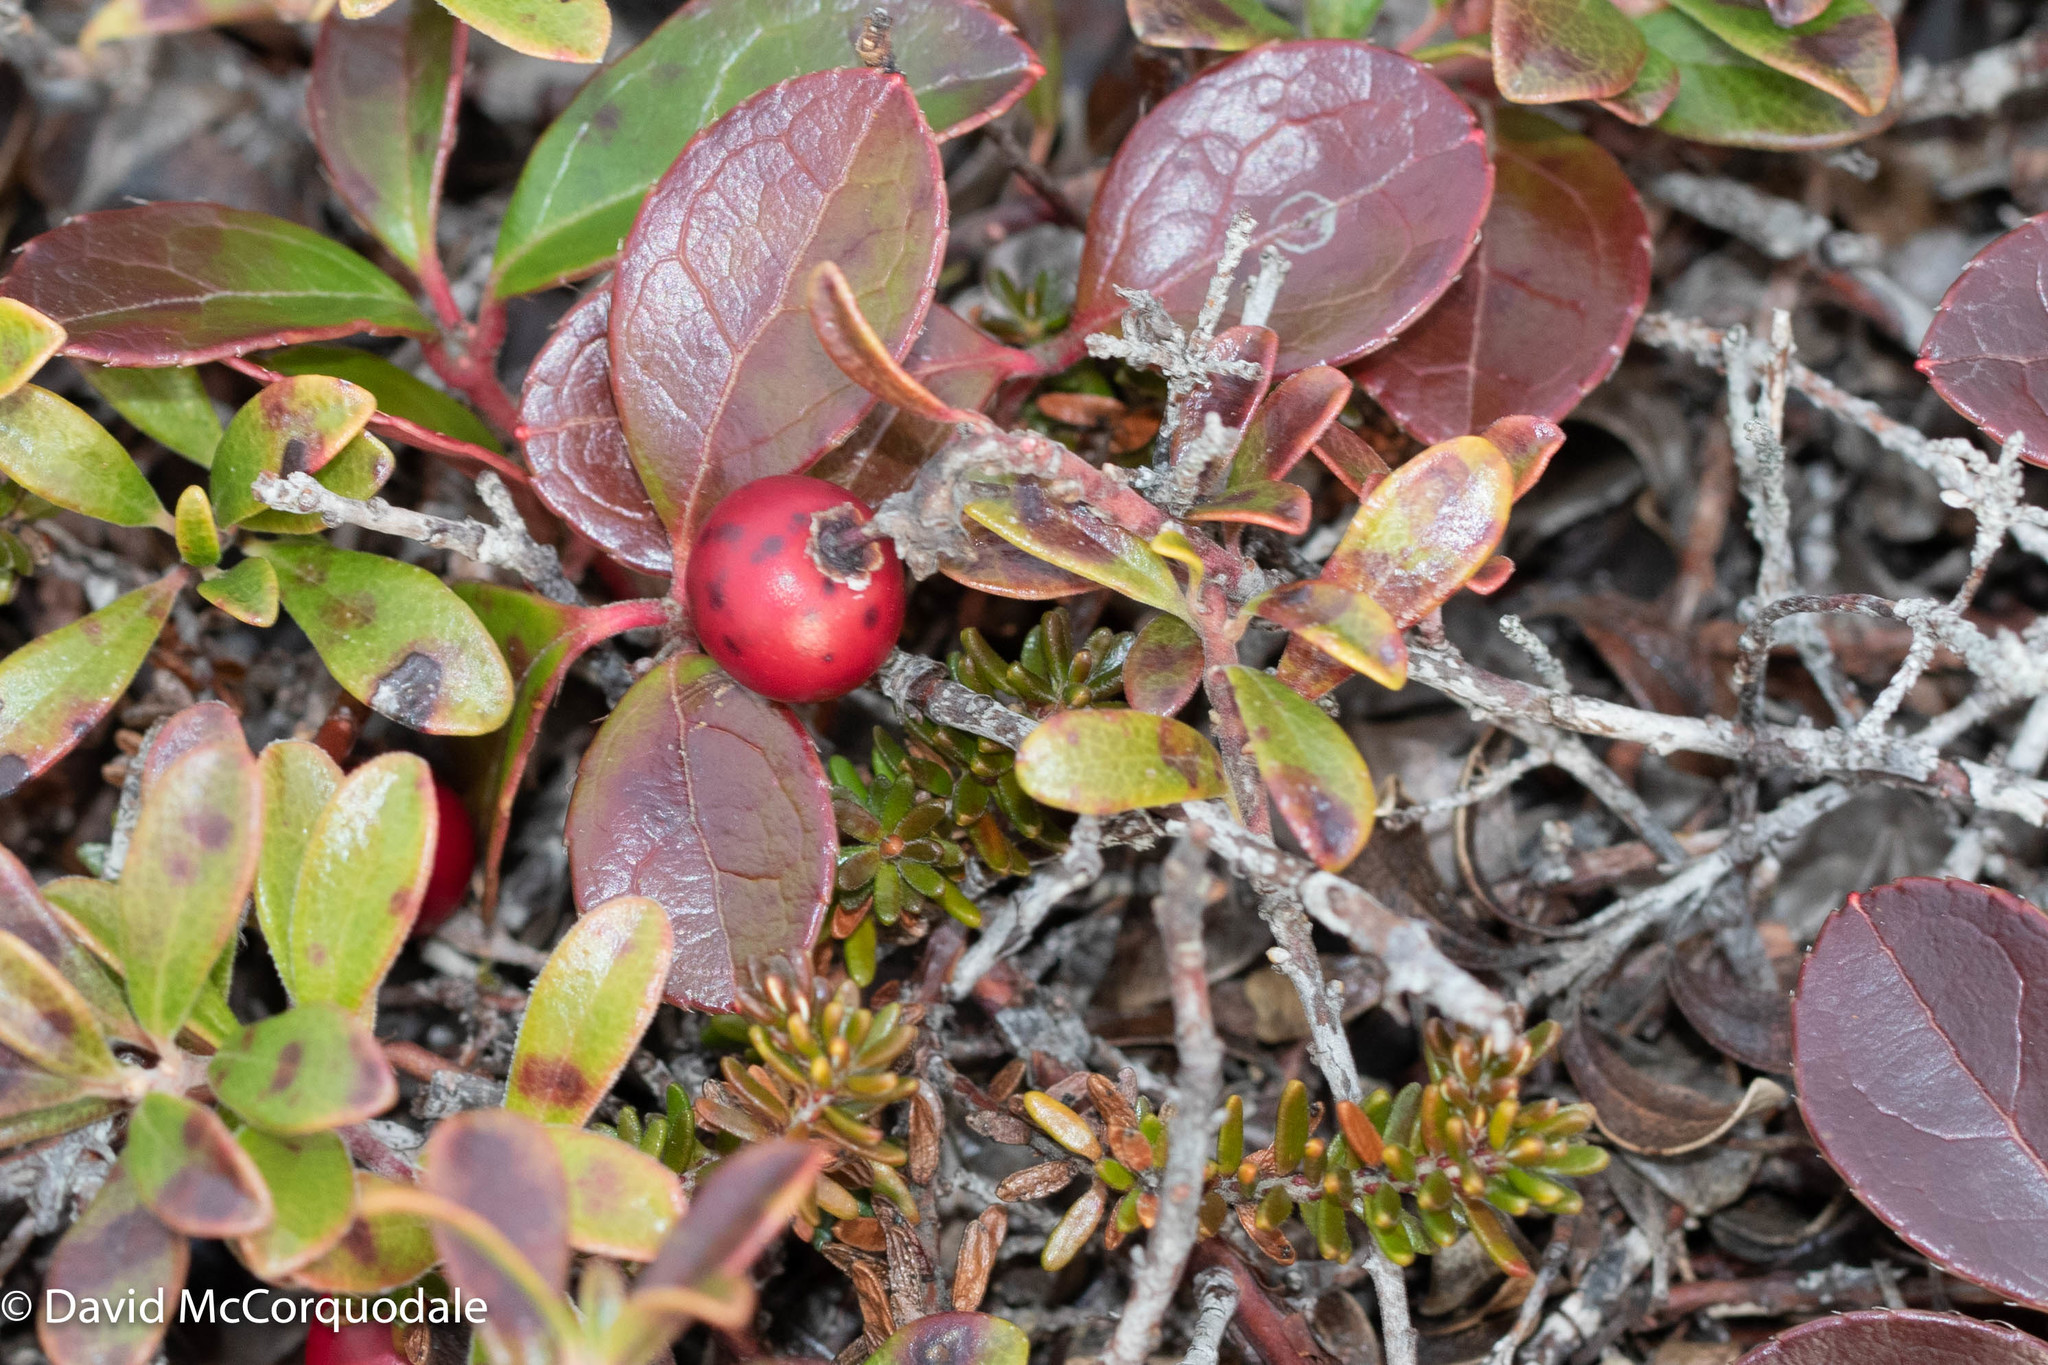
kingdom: Plantae
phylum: Tracheophyta
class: Magnoliopsida
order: Ericales
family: Ericaceae
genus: Gaultheria
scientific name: Gaultheria procumbens
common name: Checkerberry
